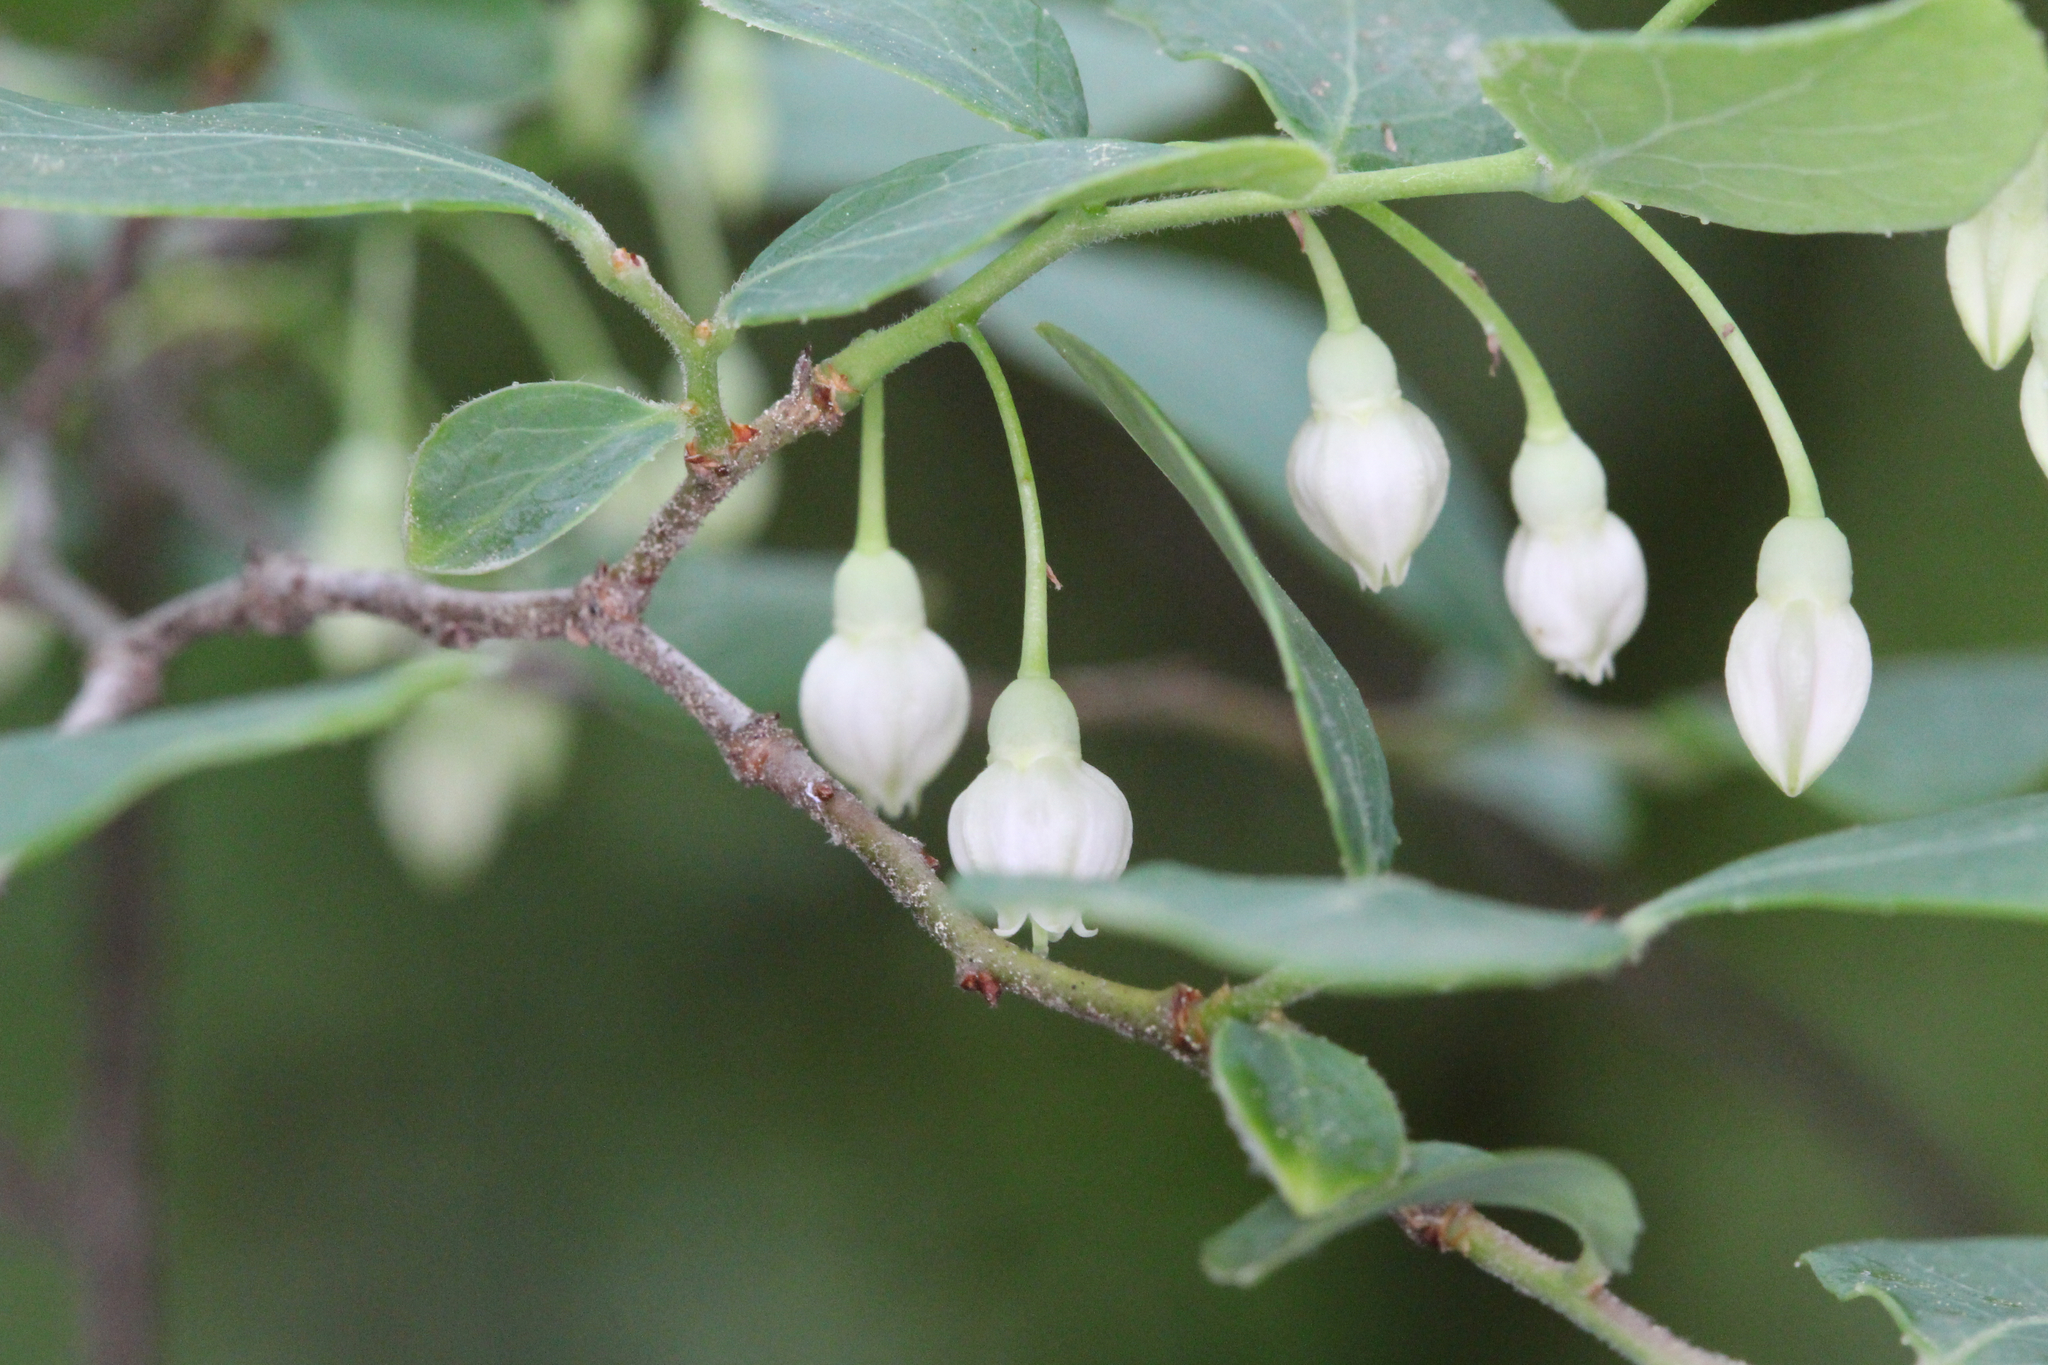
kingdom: Plantae
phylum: Tracheophyta
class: Magnoliopsida
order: Ericales
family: Ericaceae
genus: Vaccinium
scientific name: Vaccinium arboreum
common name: Farkleberry
